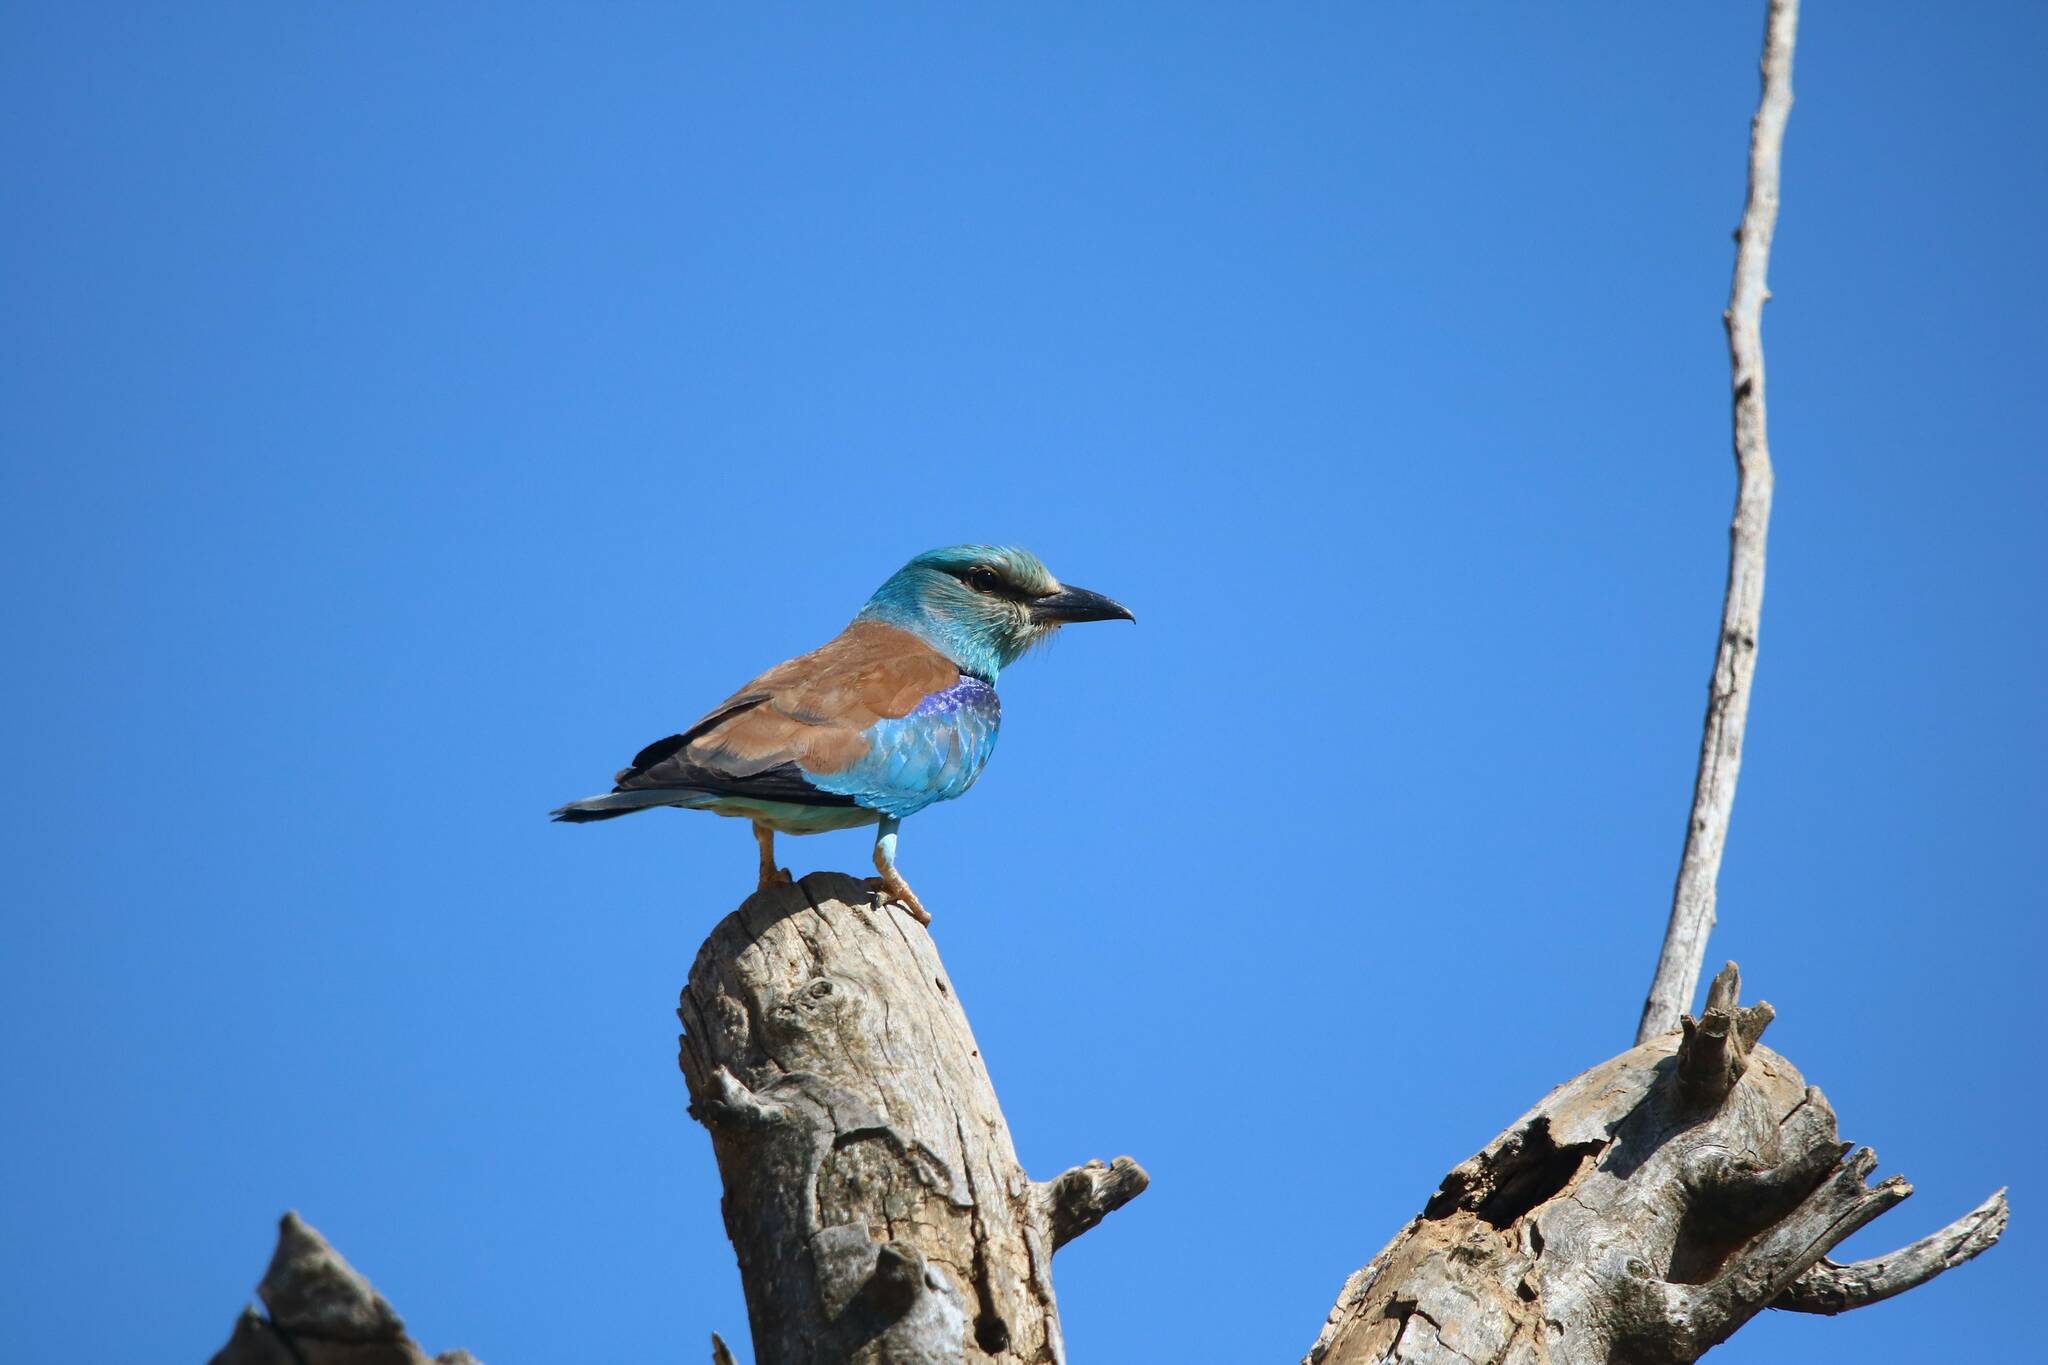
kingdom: Animalia
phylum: Chordata
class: Aves
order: Coraciiformes
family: Coraciidae
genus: Coracias
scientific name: Coracias garrulus
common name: European roller
